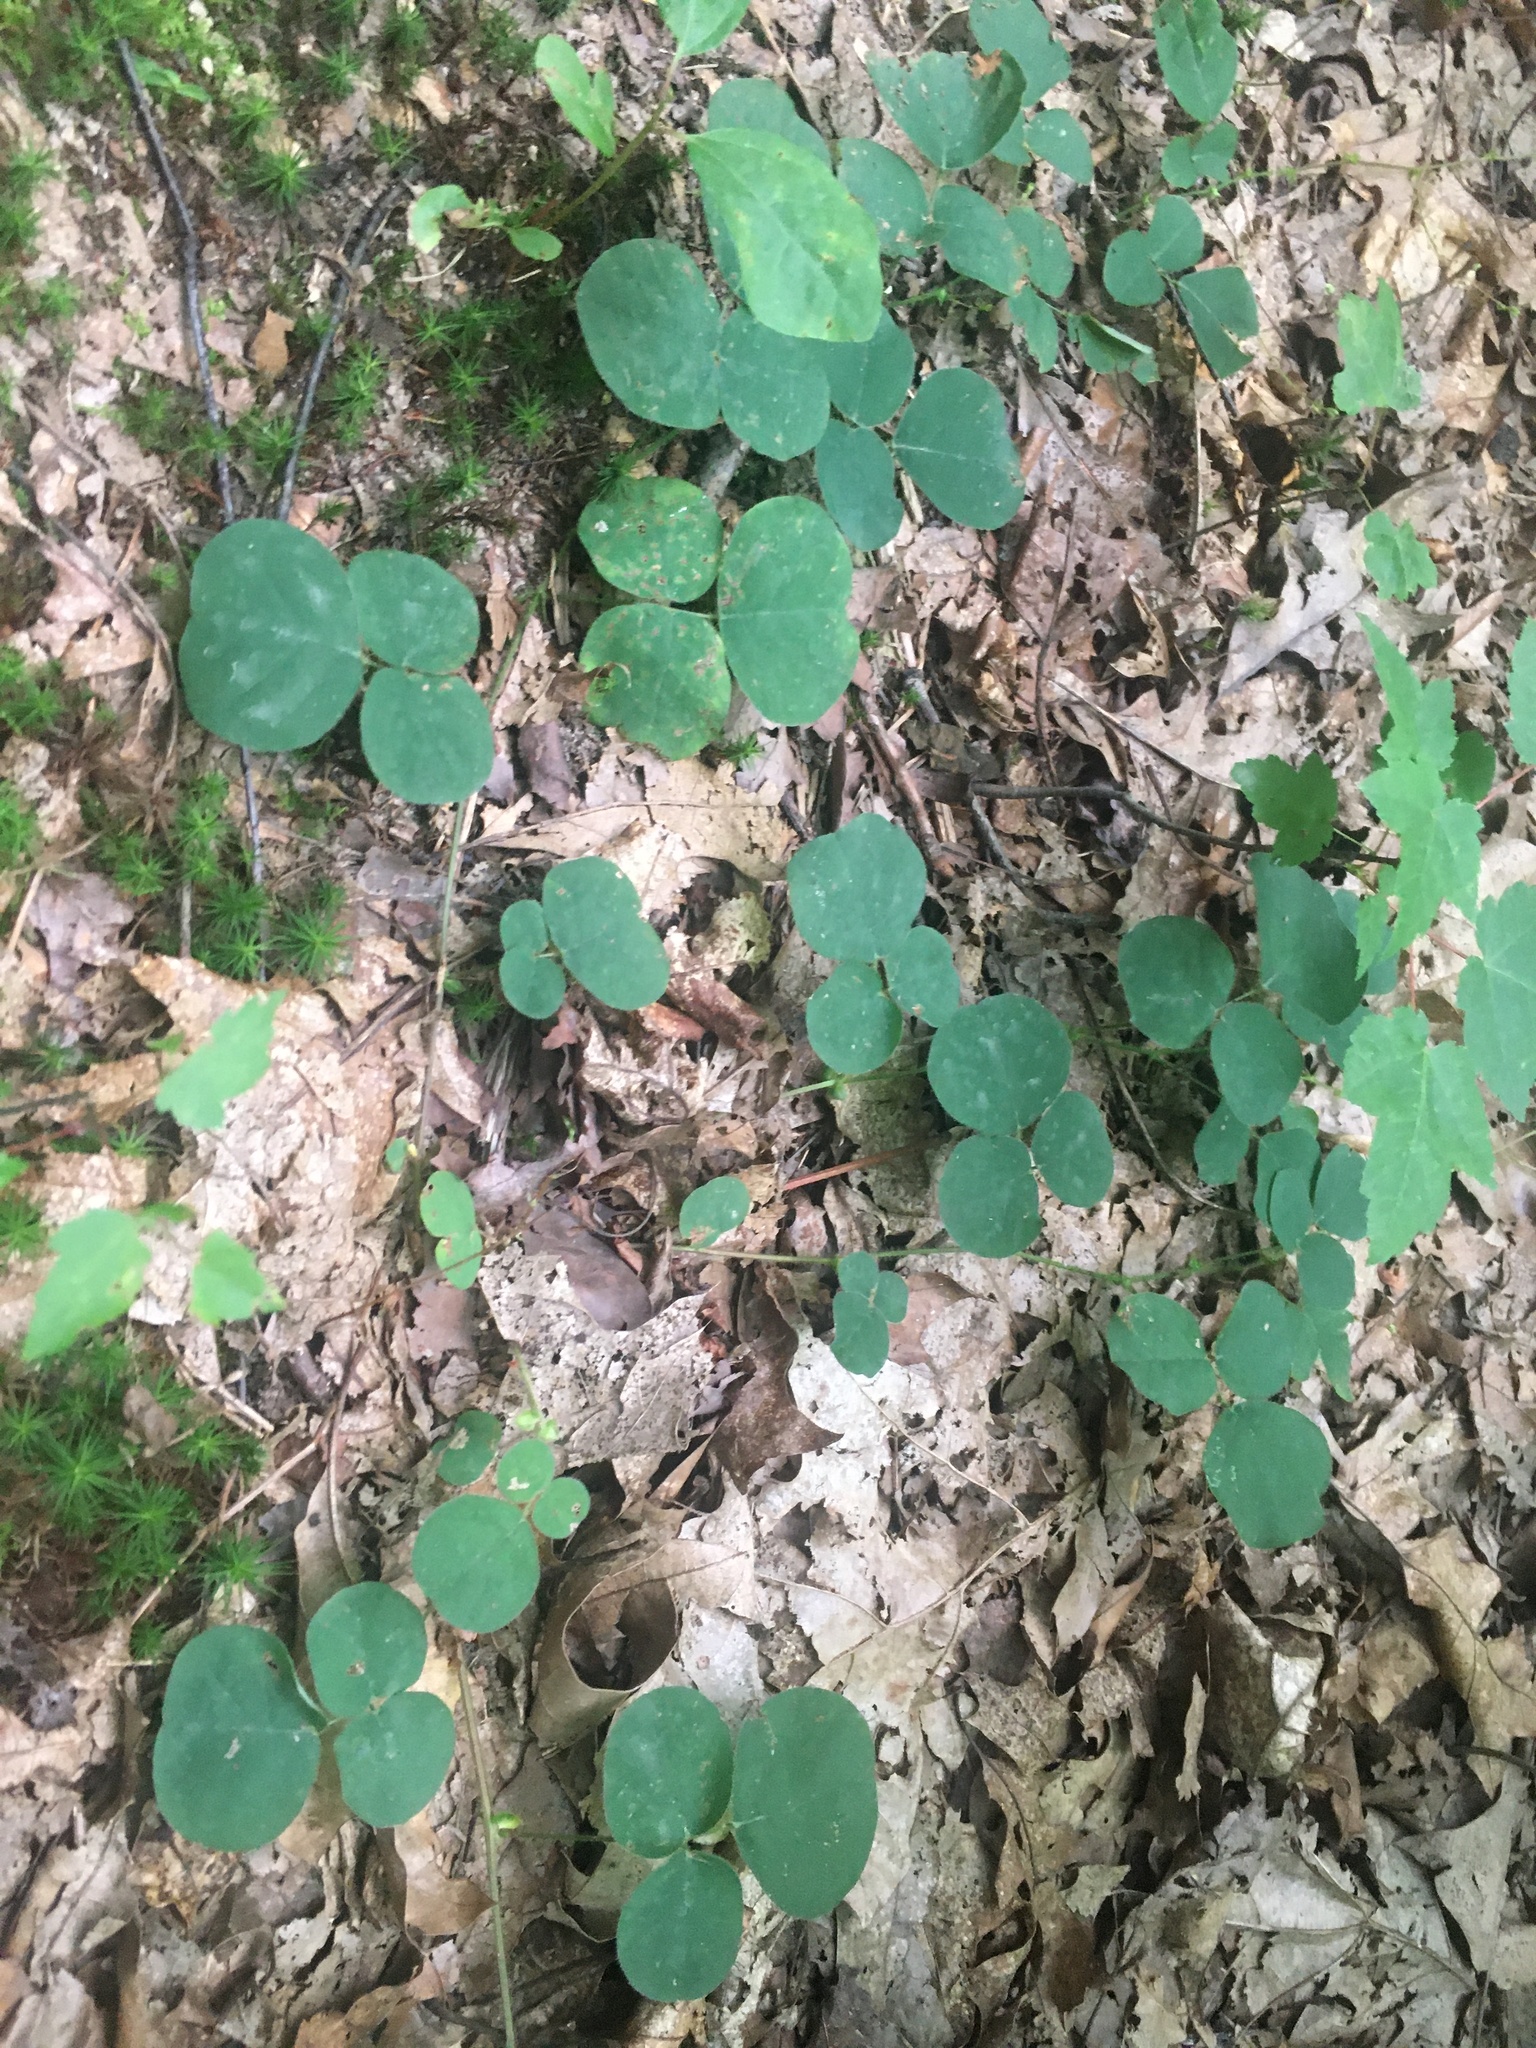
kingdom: Plantae
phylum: Tracheophyta
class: Magnoliopsida
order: Fabales
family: Fabaceae
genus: Desmodium
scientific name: Desmodium rotundifolium
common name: Dollarleaf
